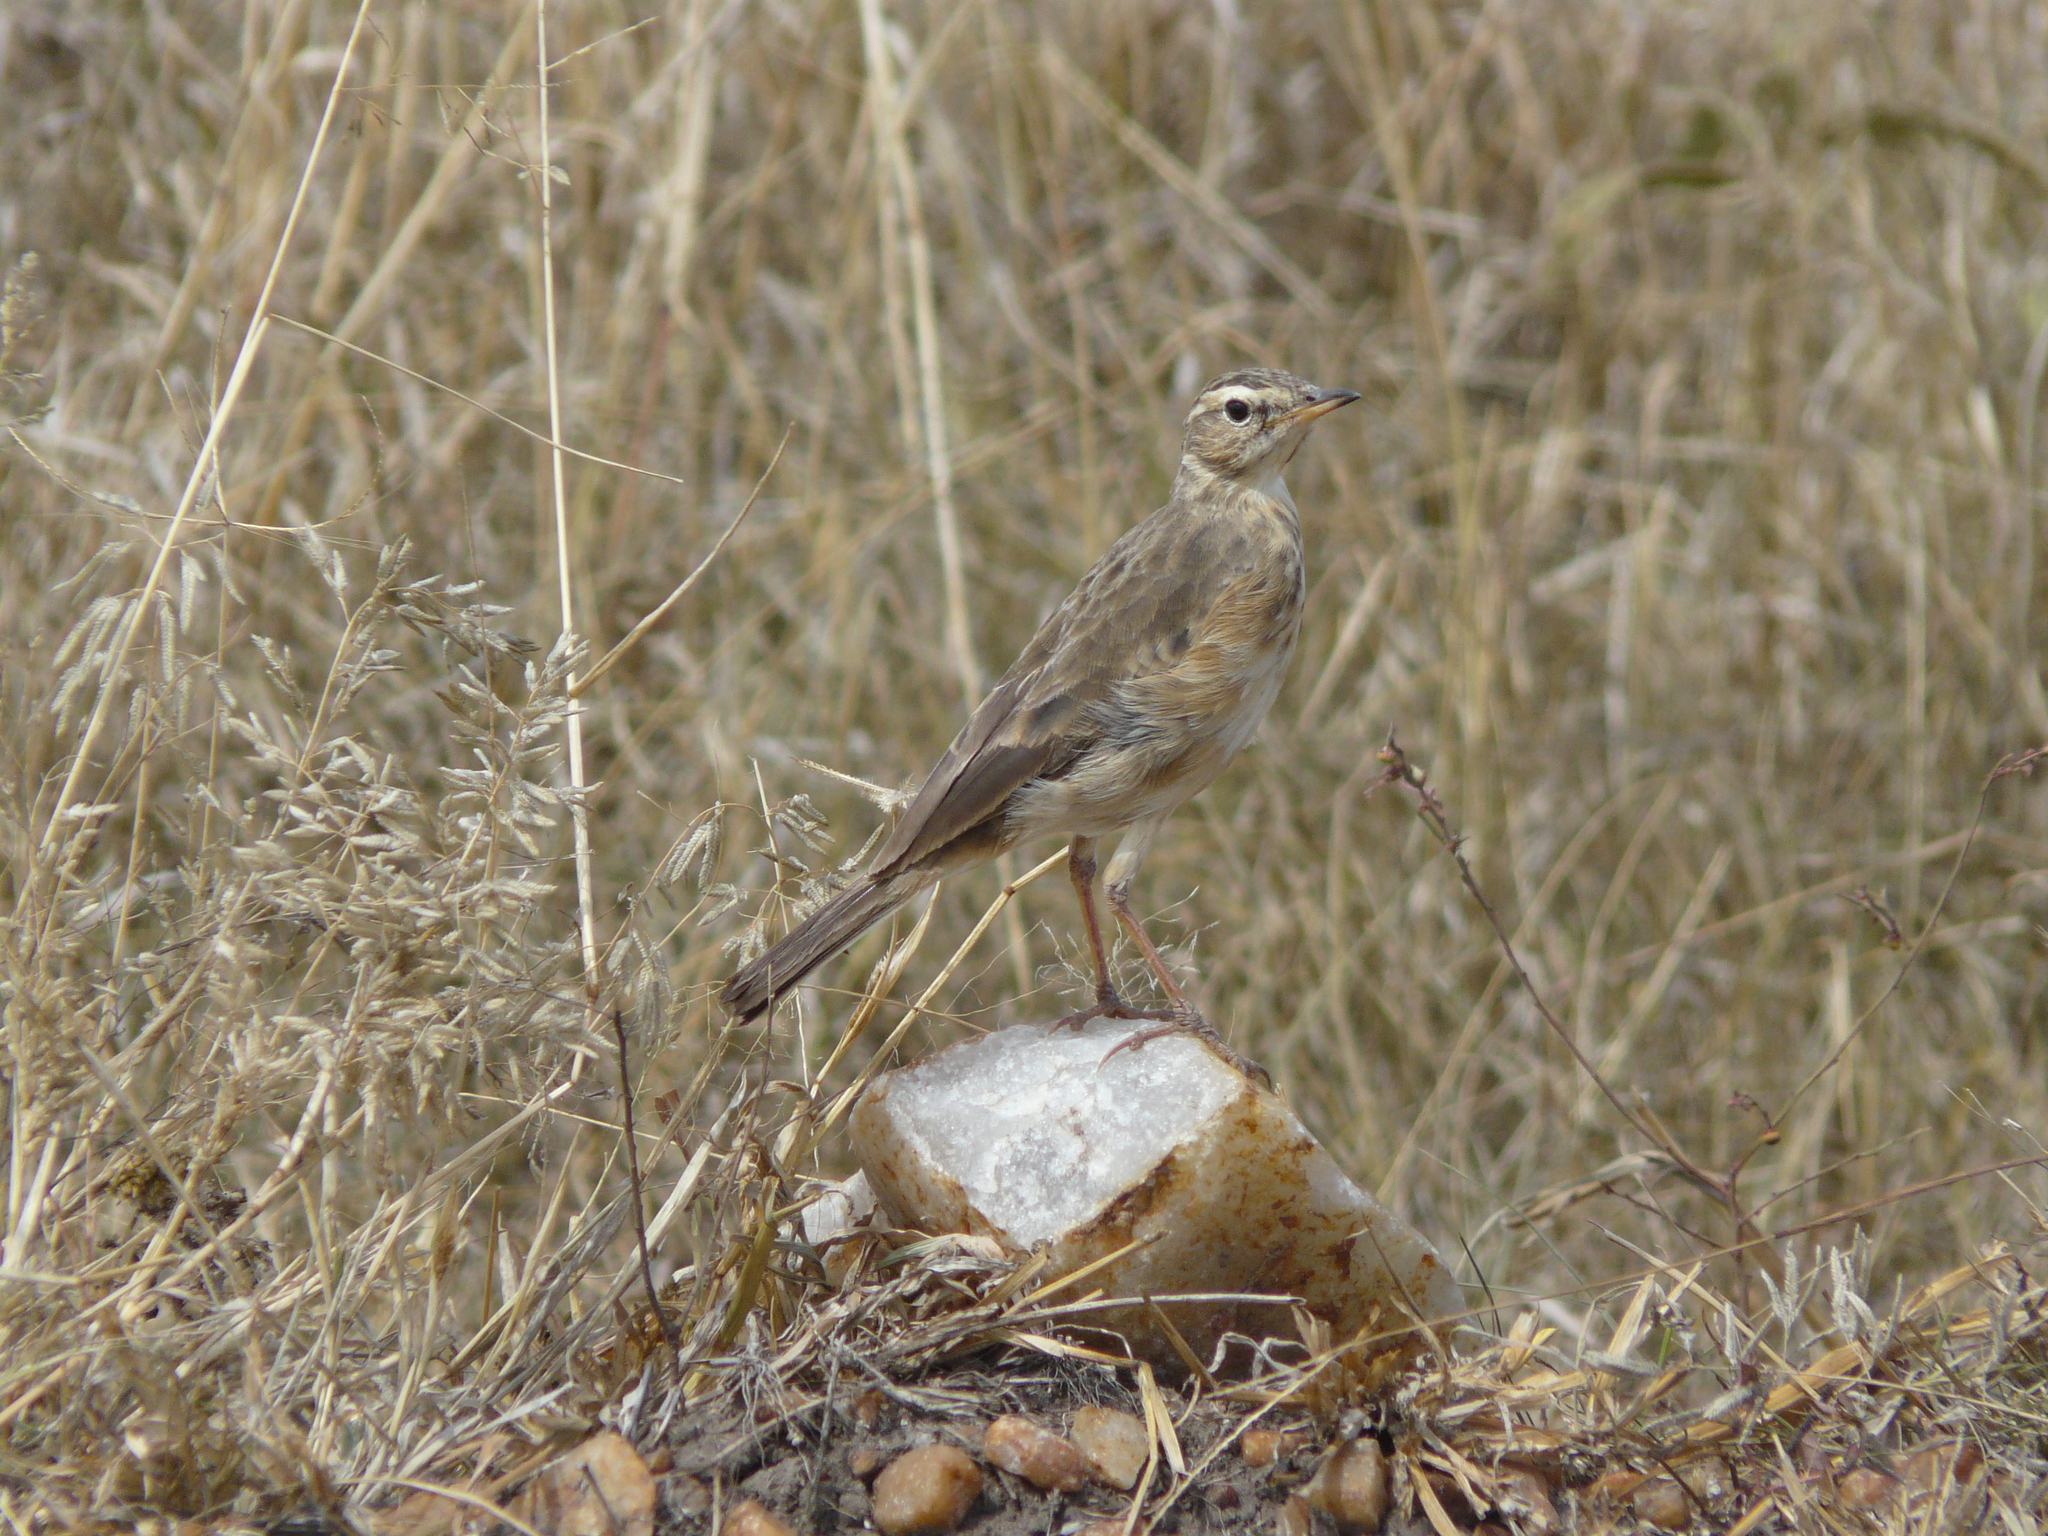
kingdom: Animalia
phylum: Chordata
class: Aves
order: Passeriformes
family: Motacillidae
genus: Anthus
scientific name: Anthus leucophrys
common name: Plain-backed pipit
